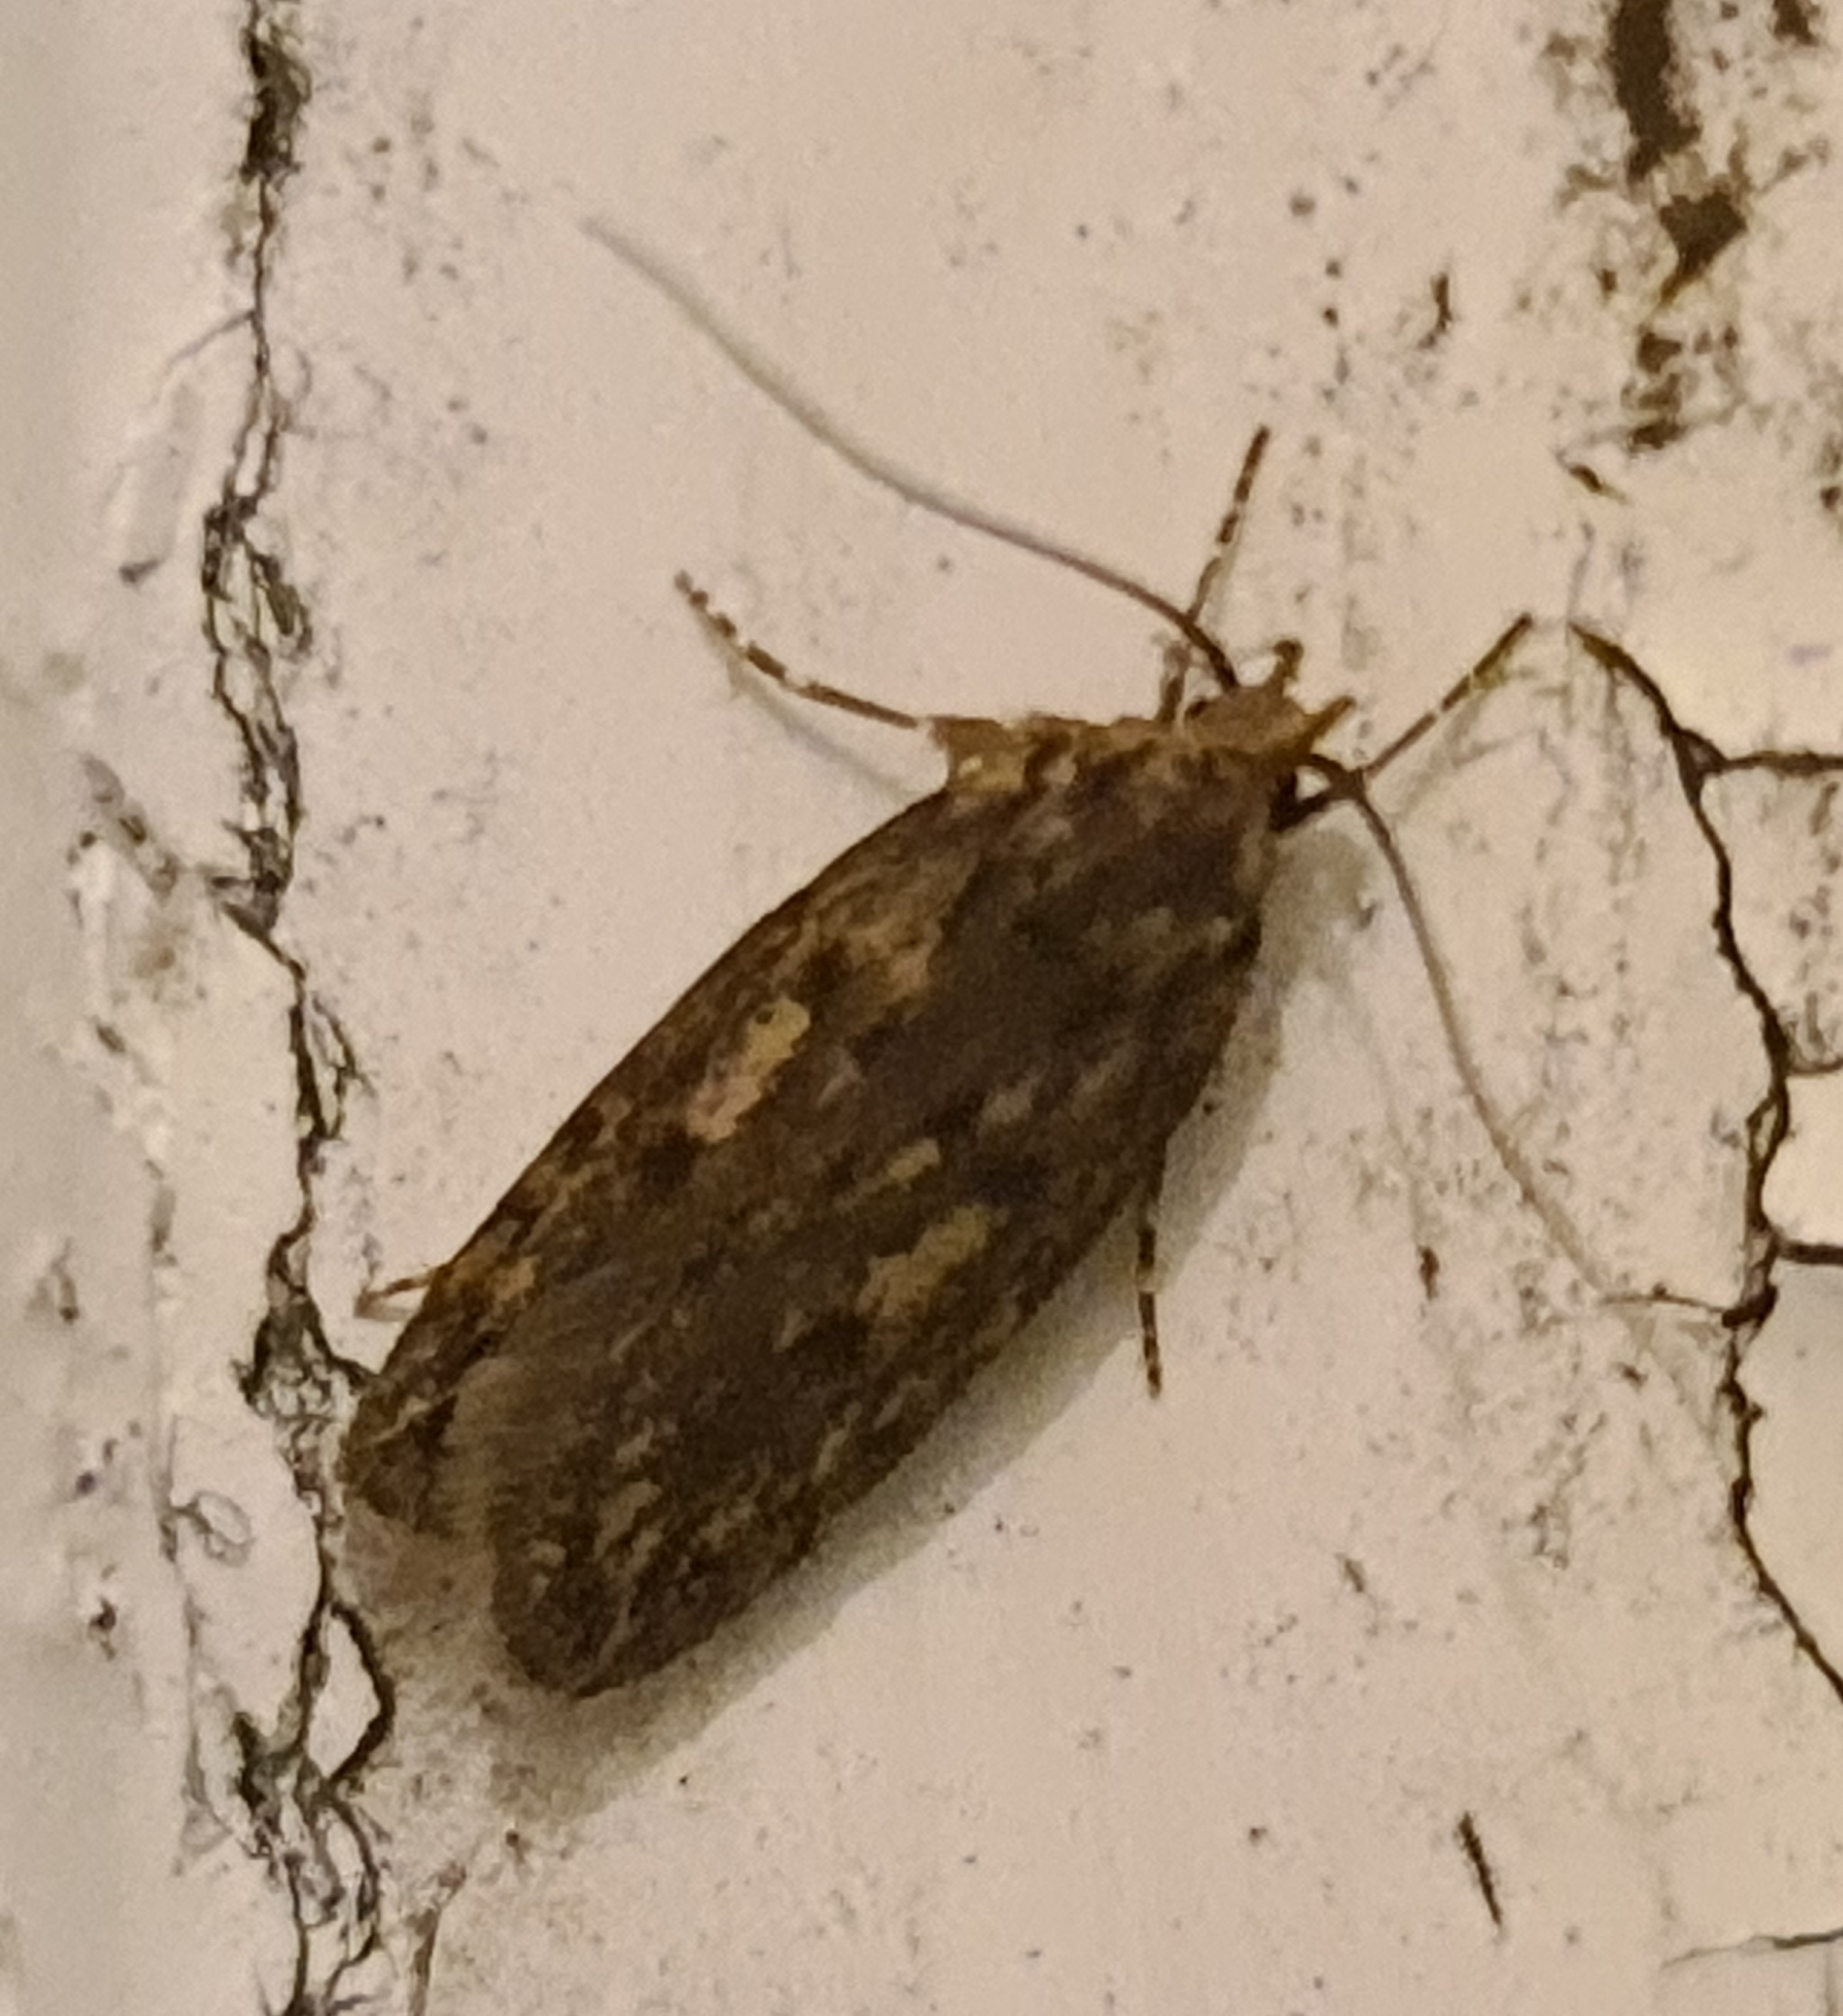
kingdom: Animalia
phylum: Arthropoda
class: Insecta
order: Lepidoptera
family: Oecophoridae
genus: Hofmannophila
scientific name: Hofmannophila pseudospretella
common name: Brown house moth
